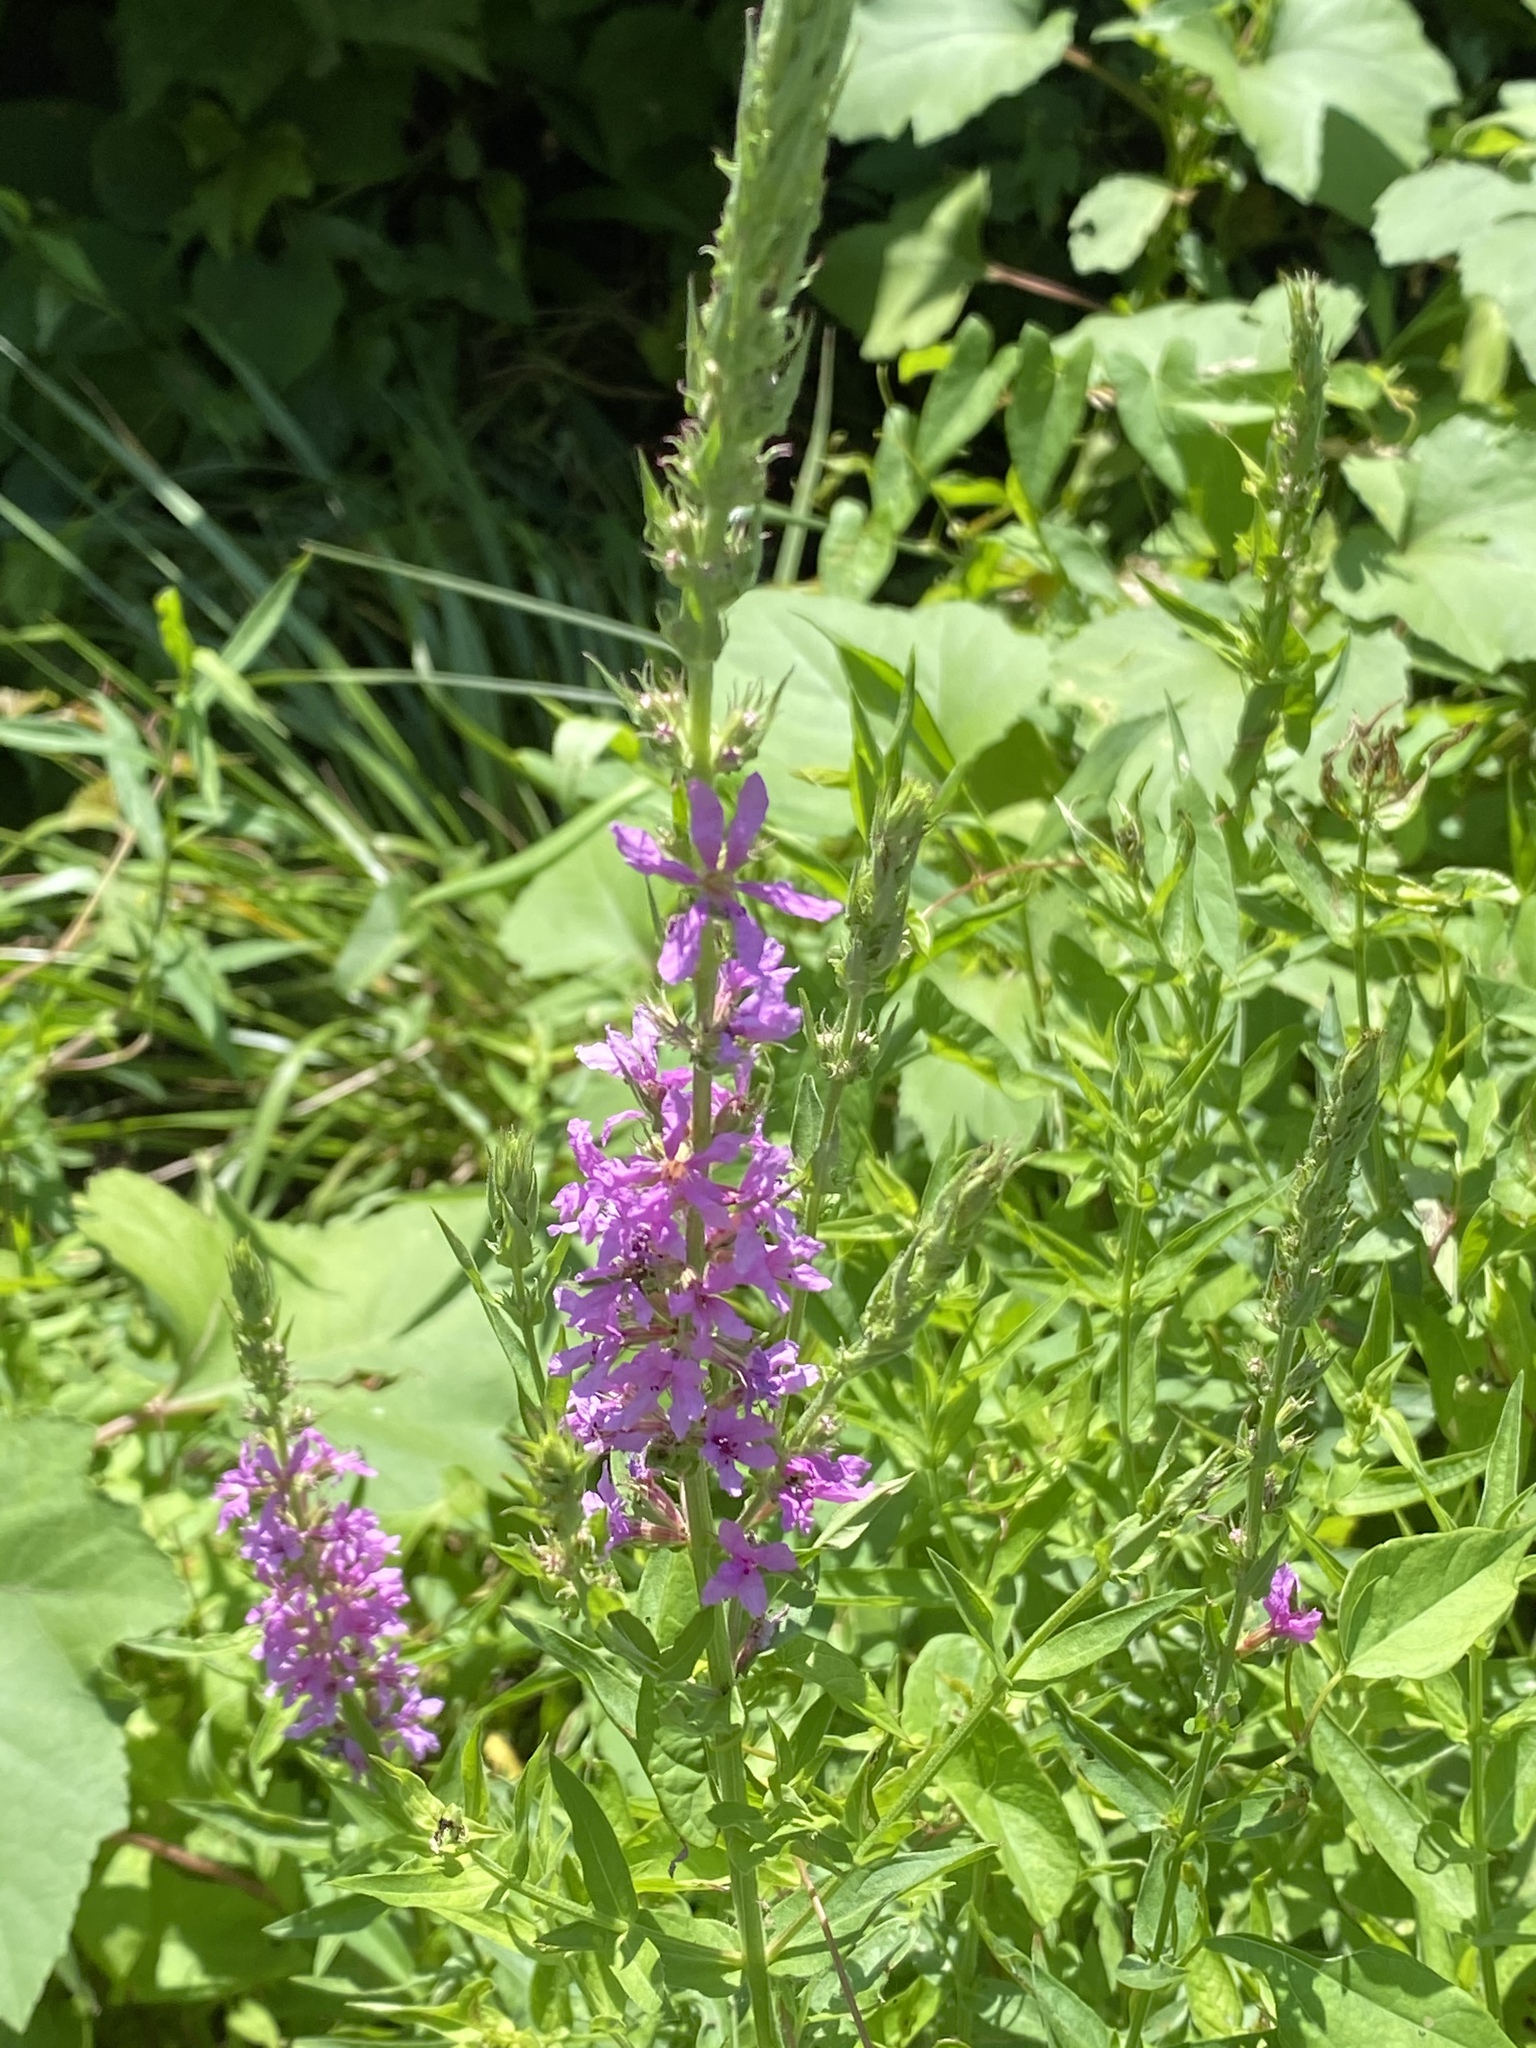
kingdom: Plantae
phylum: Tracheophyta
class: Magnoliopsida
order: Myrtales
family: Lythraceae
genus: Lythrum
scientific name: Lythrum salicaria
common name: Purple loosestrife
